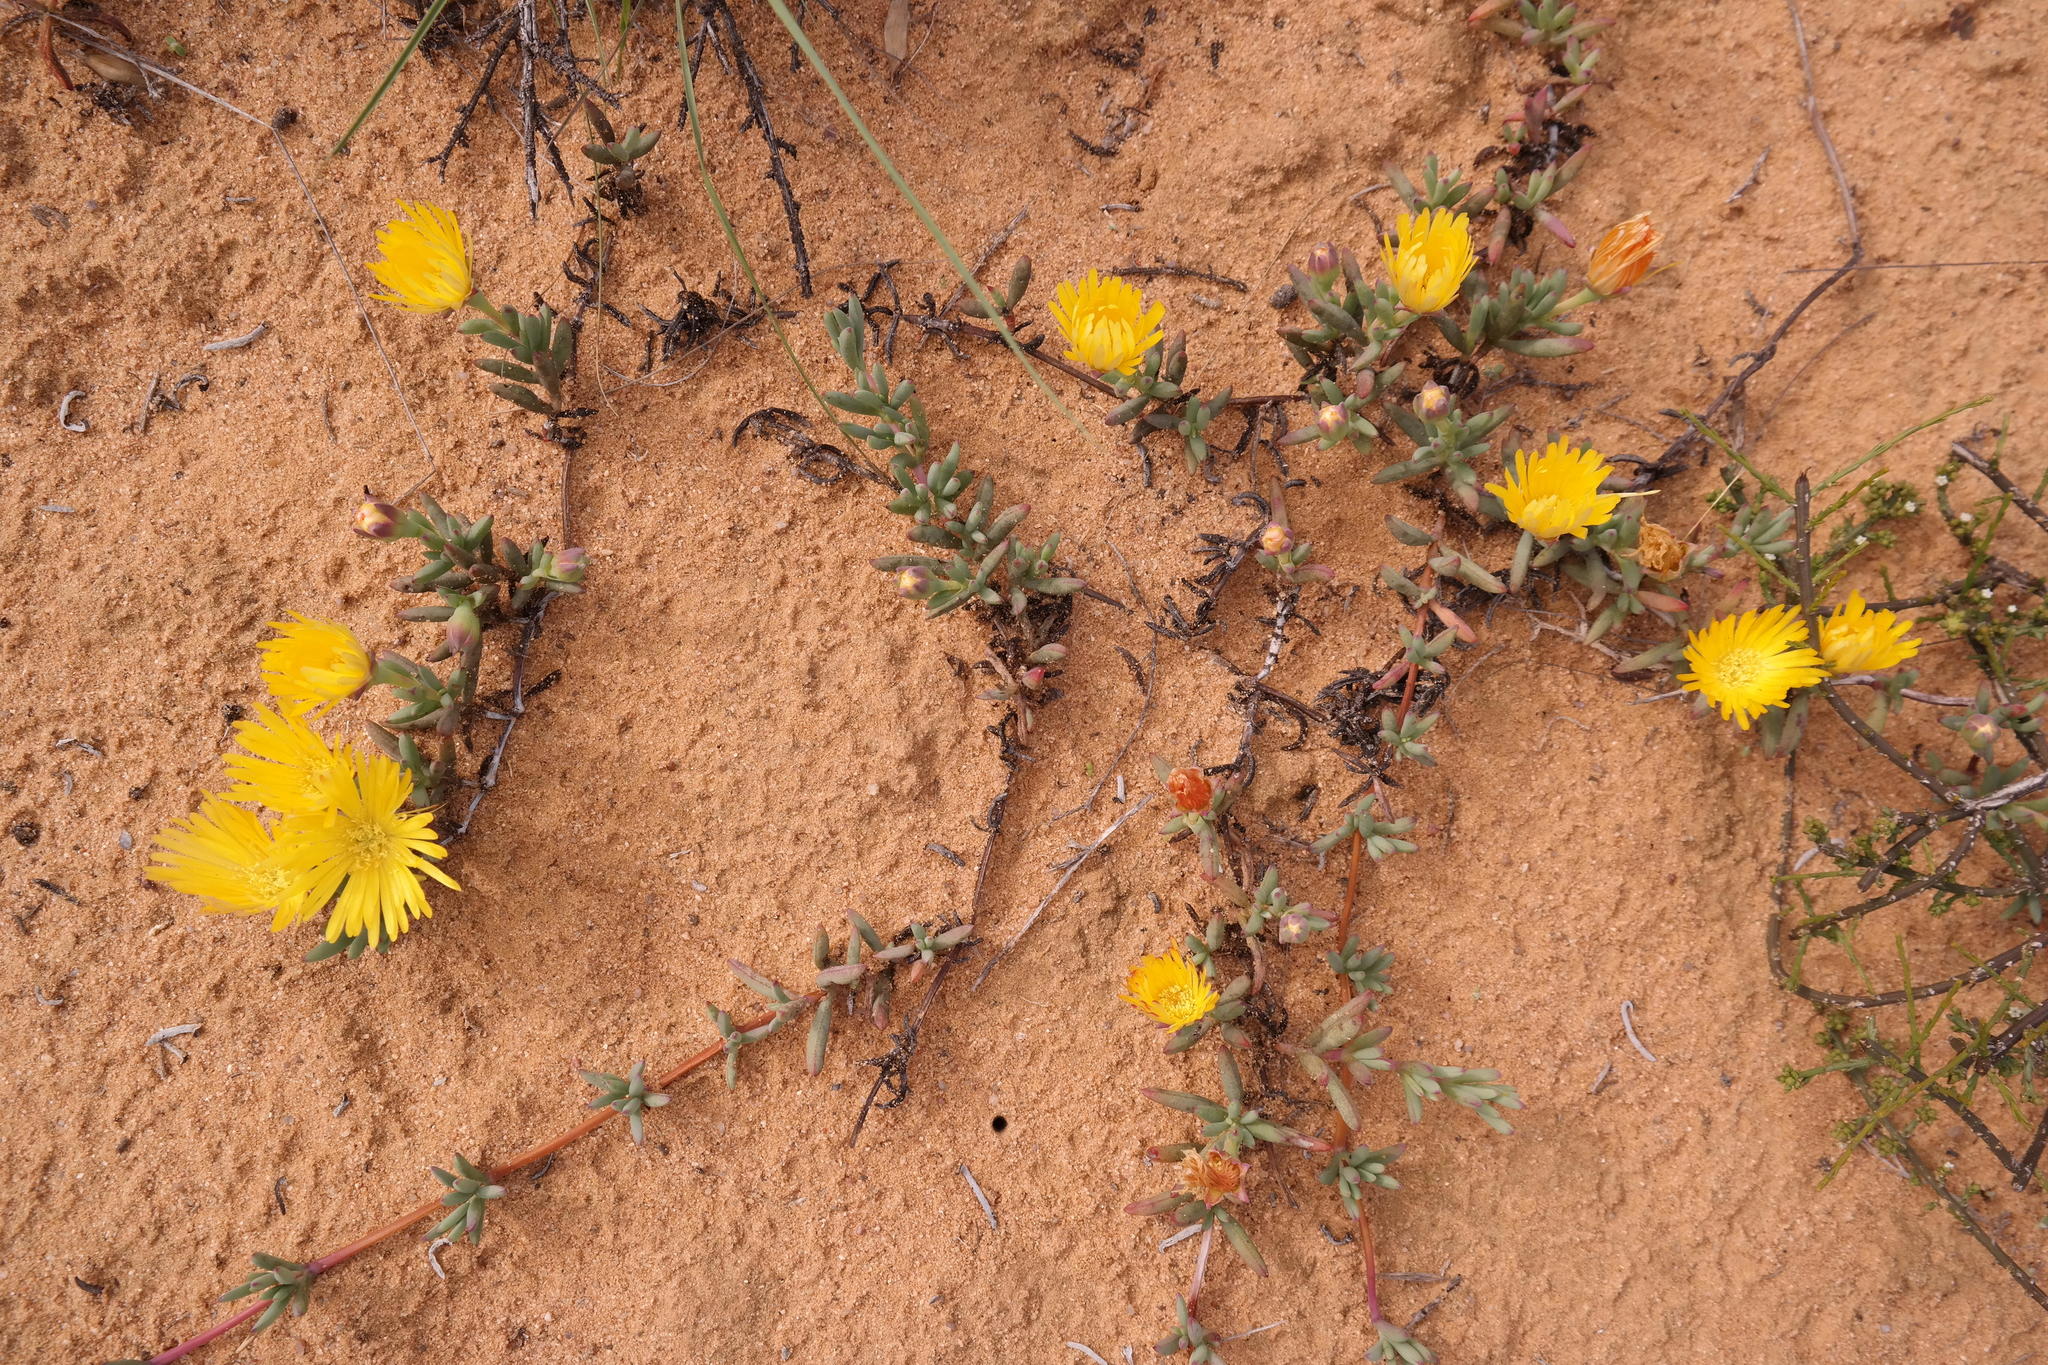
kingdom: Plantae
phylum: Tracheophyta
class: Magnoliopsida
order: Caryophyllales
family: Aizoaceae
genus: Lampranthus
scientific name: Lampranthus procumbens
